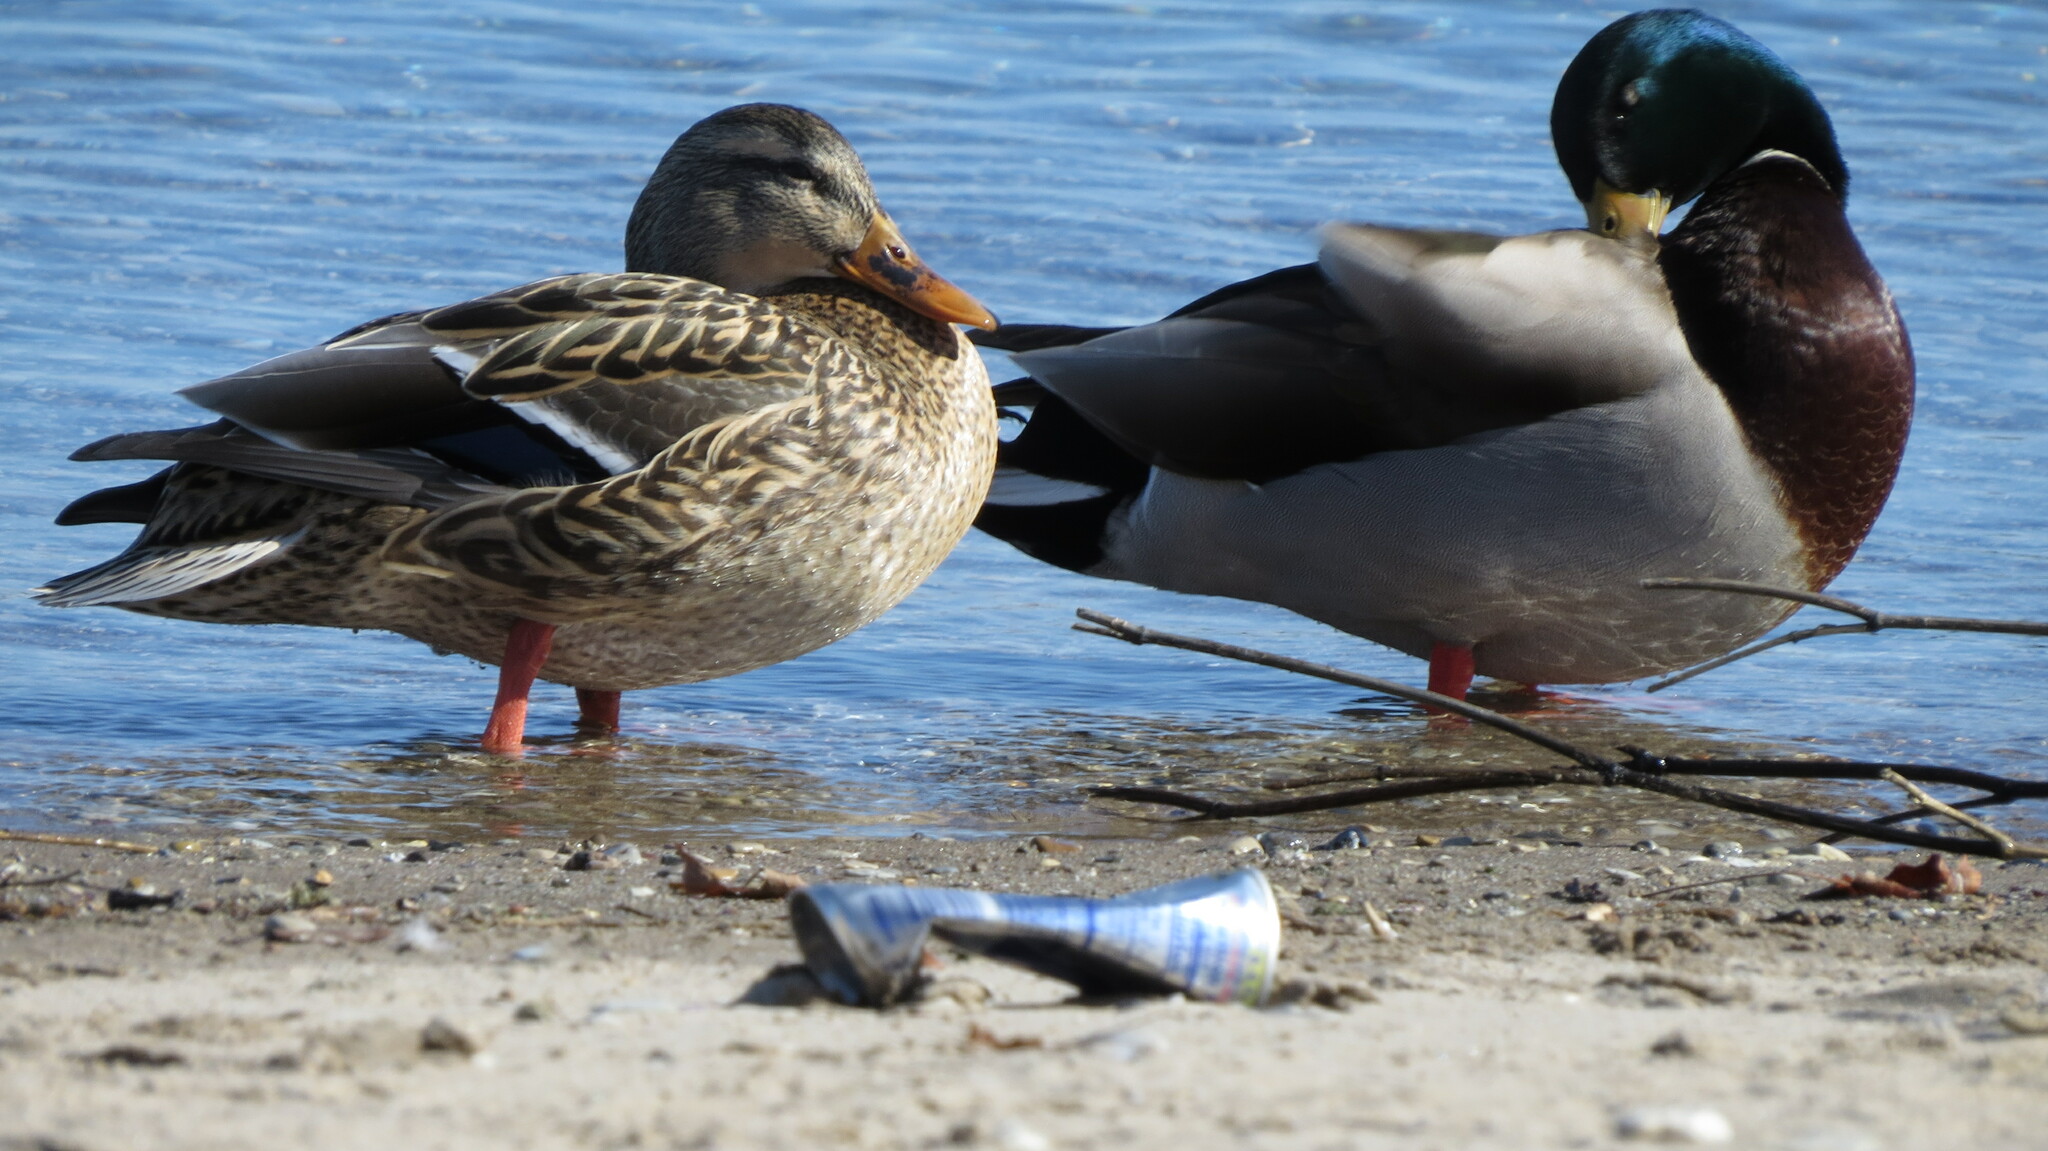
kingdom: Animalia
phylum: Chordata
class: Aves
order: Anseriformes
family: Anatidae
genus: Anas
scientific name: Anas platyrhynchos
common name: Mallard
